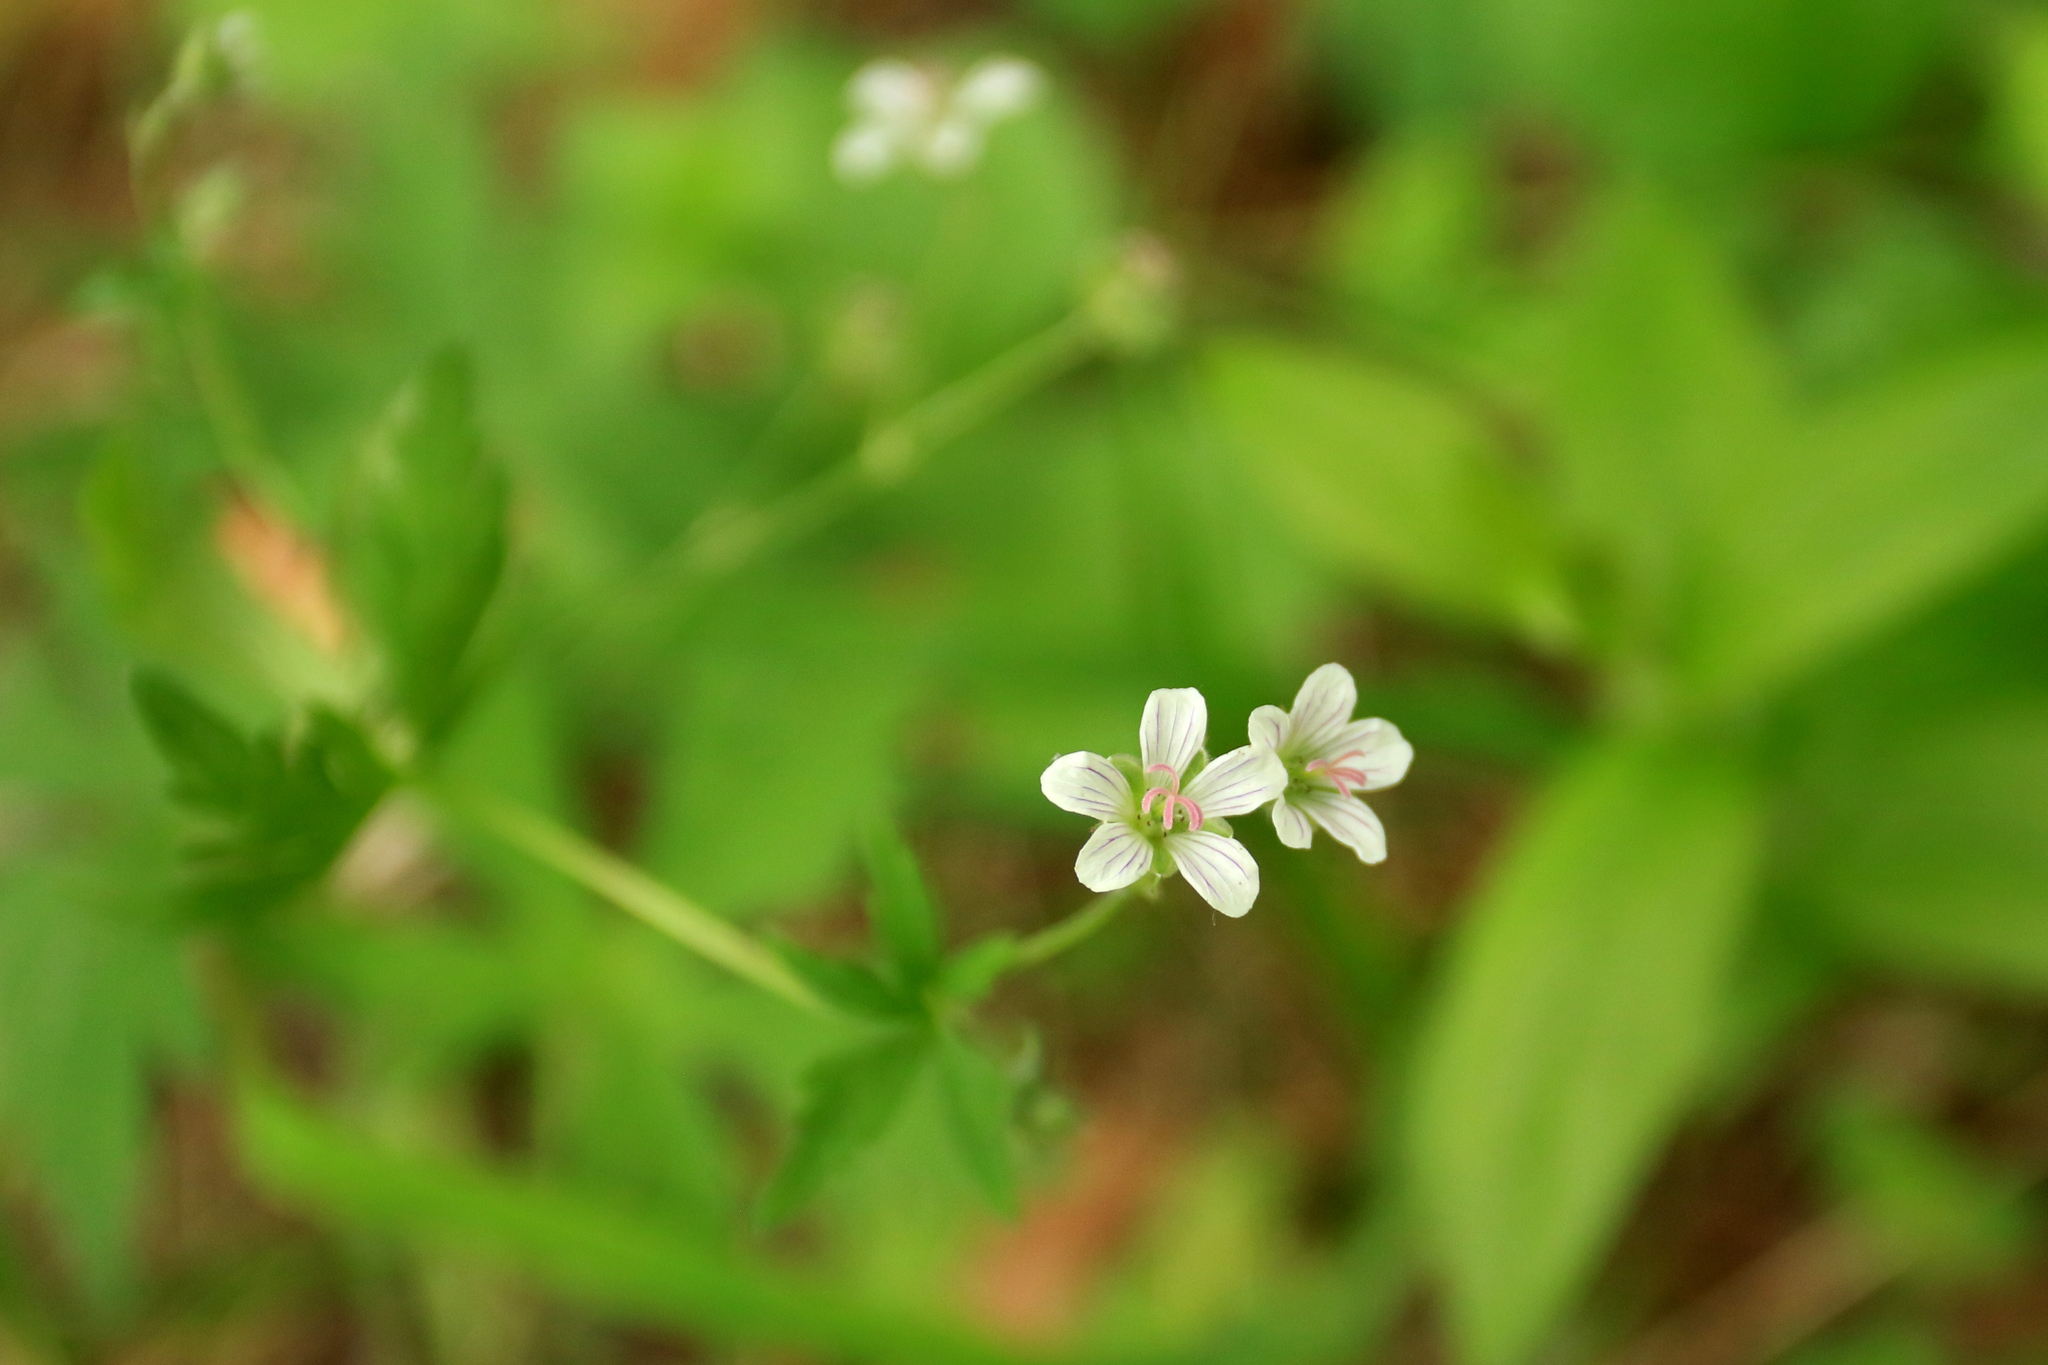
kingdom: Plantae
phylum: Tracheophyta
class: Magnoliopsida
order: Geraniales
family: Geraniaceae
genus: Geranium
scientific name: Geranium pseudosibiricum
